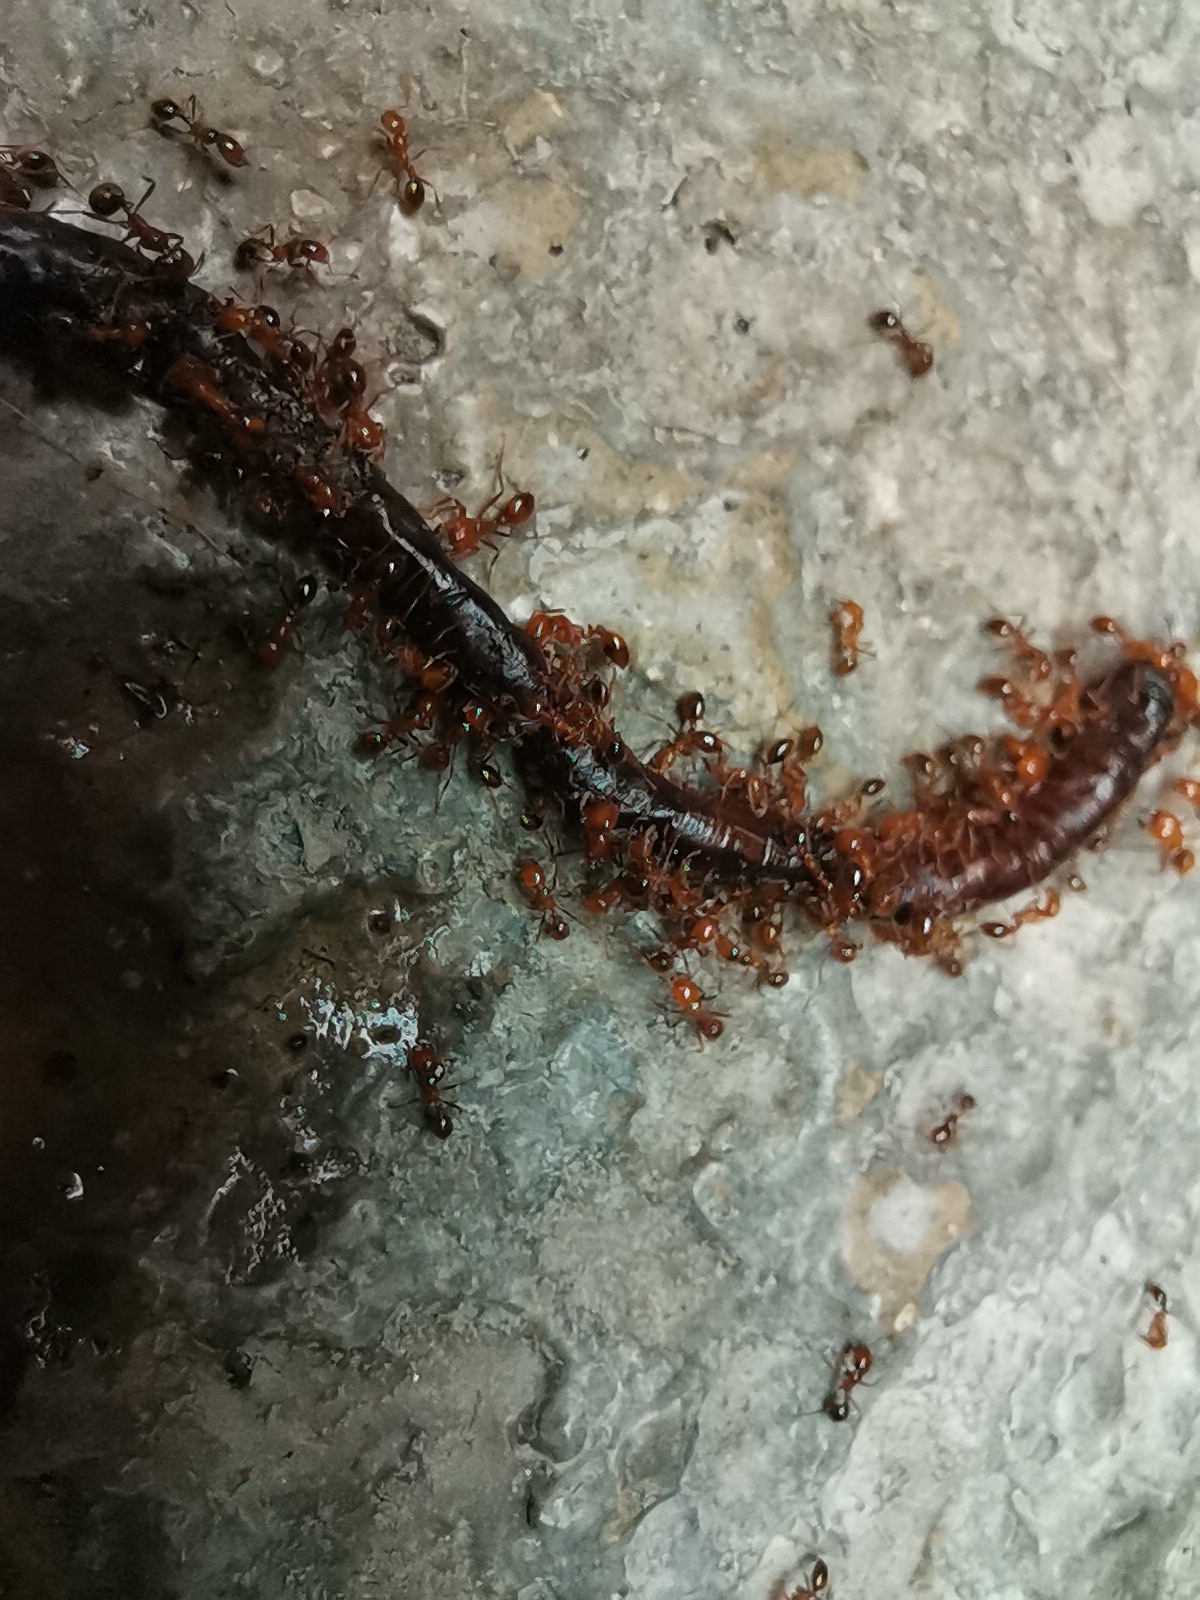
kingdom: Animalia
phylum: Arthropoda
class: Insecta
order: Hymenoptera
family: Formicidae
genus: Solenopsis
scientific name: Solenopsis xyloni
